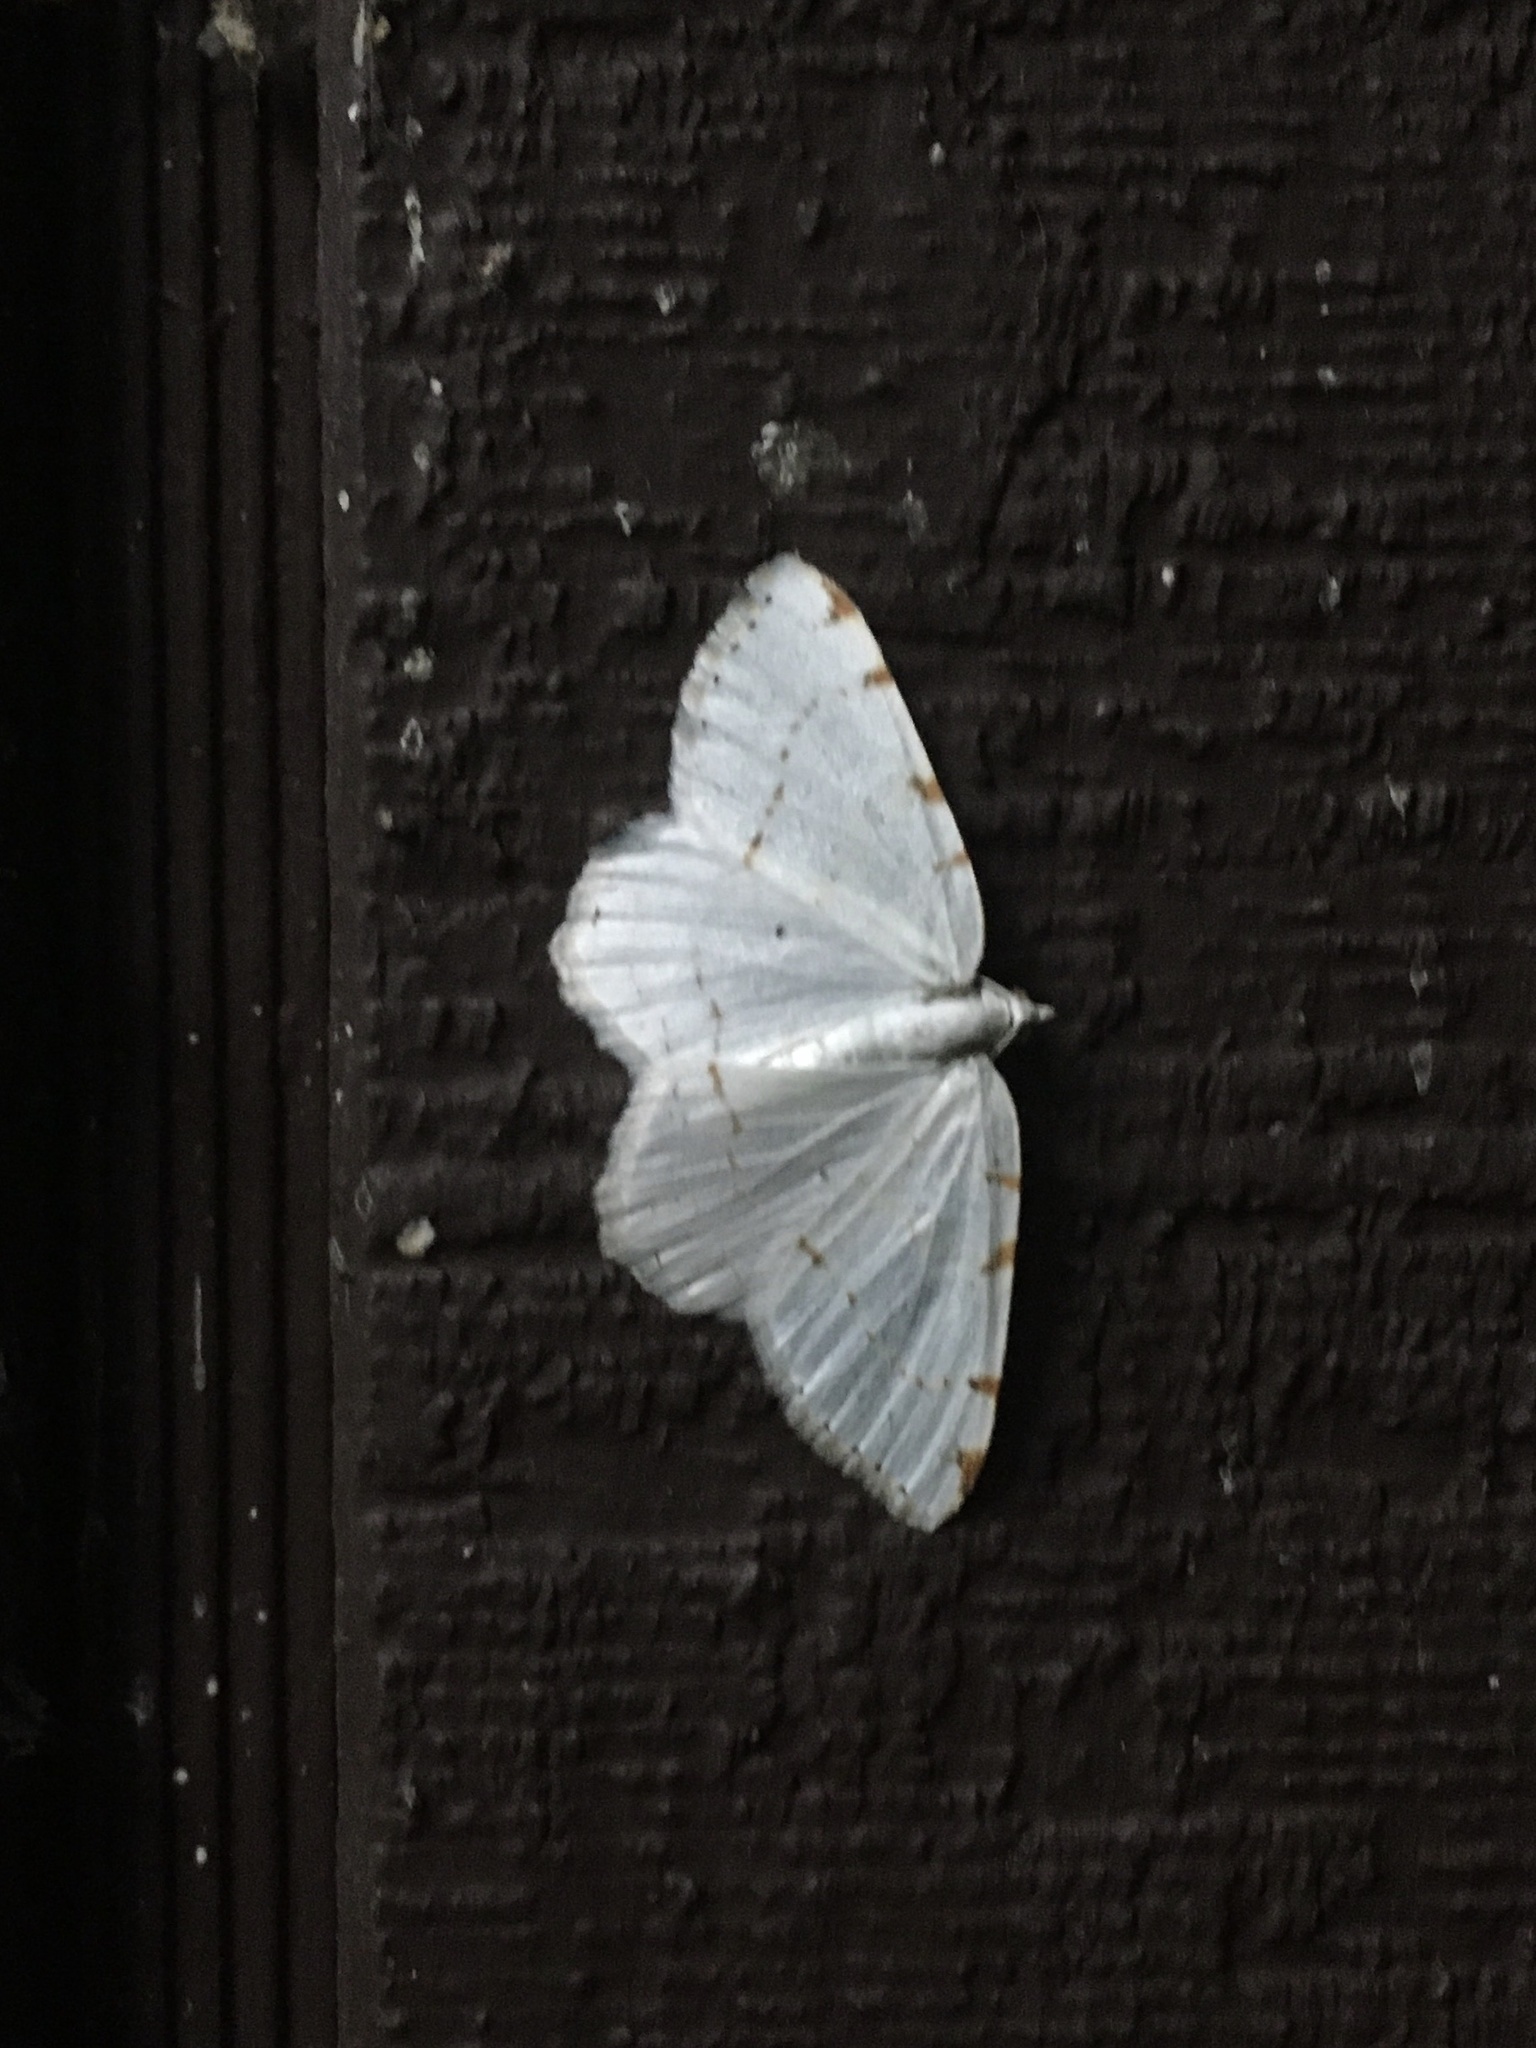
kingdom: Animalia
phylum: Arthropoda
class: Insecta
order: Lepidoptera
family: Geometridae
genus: Macaria
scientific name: Macaria pustularia
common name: Lesser maple spanworm moth
